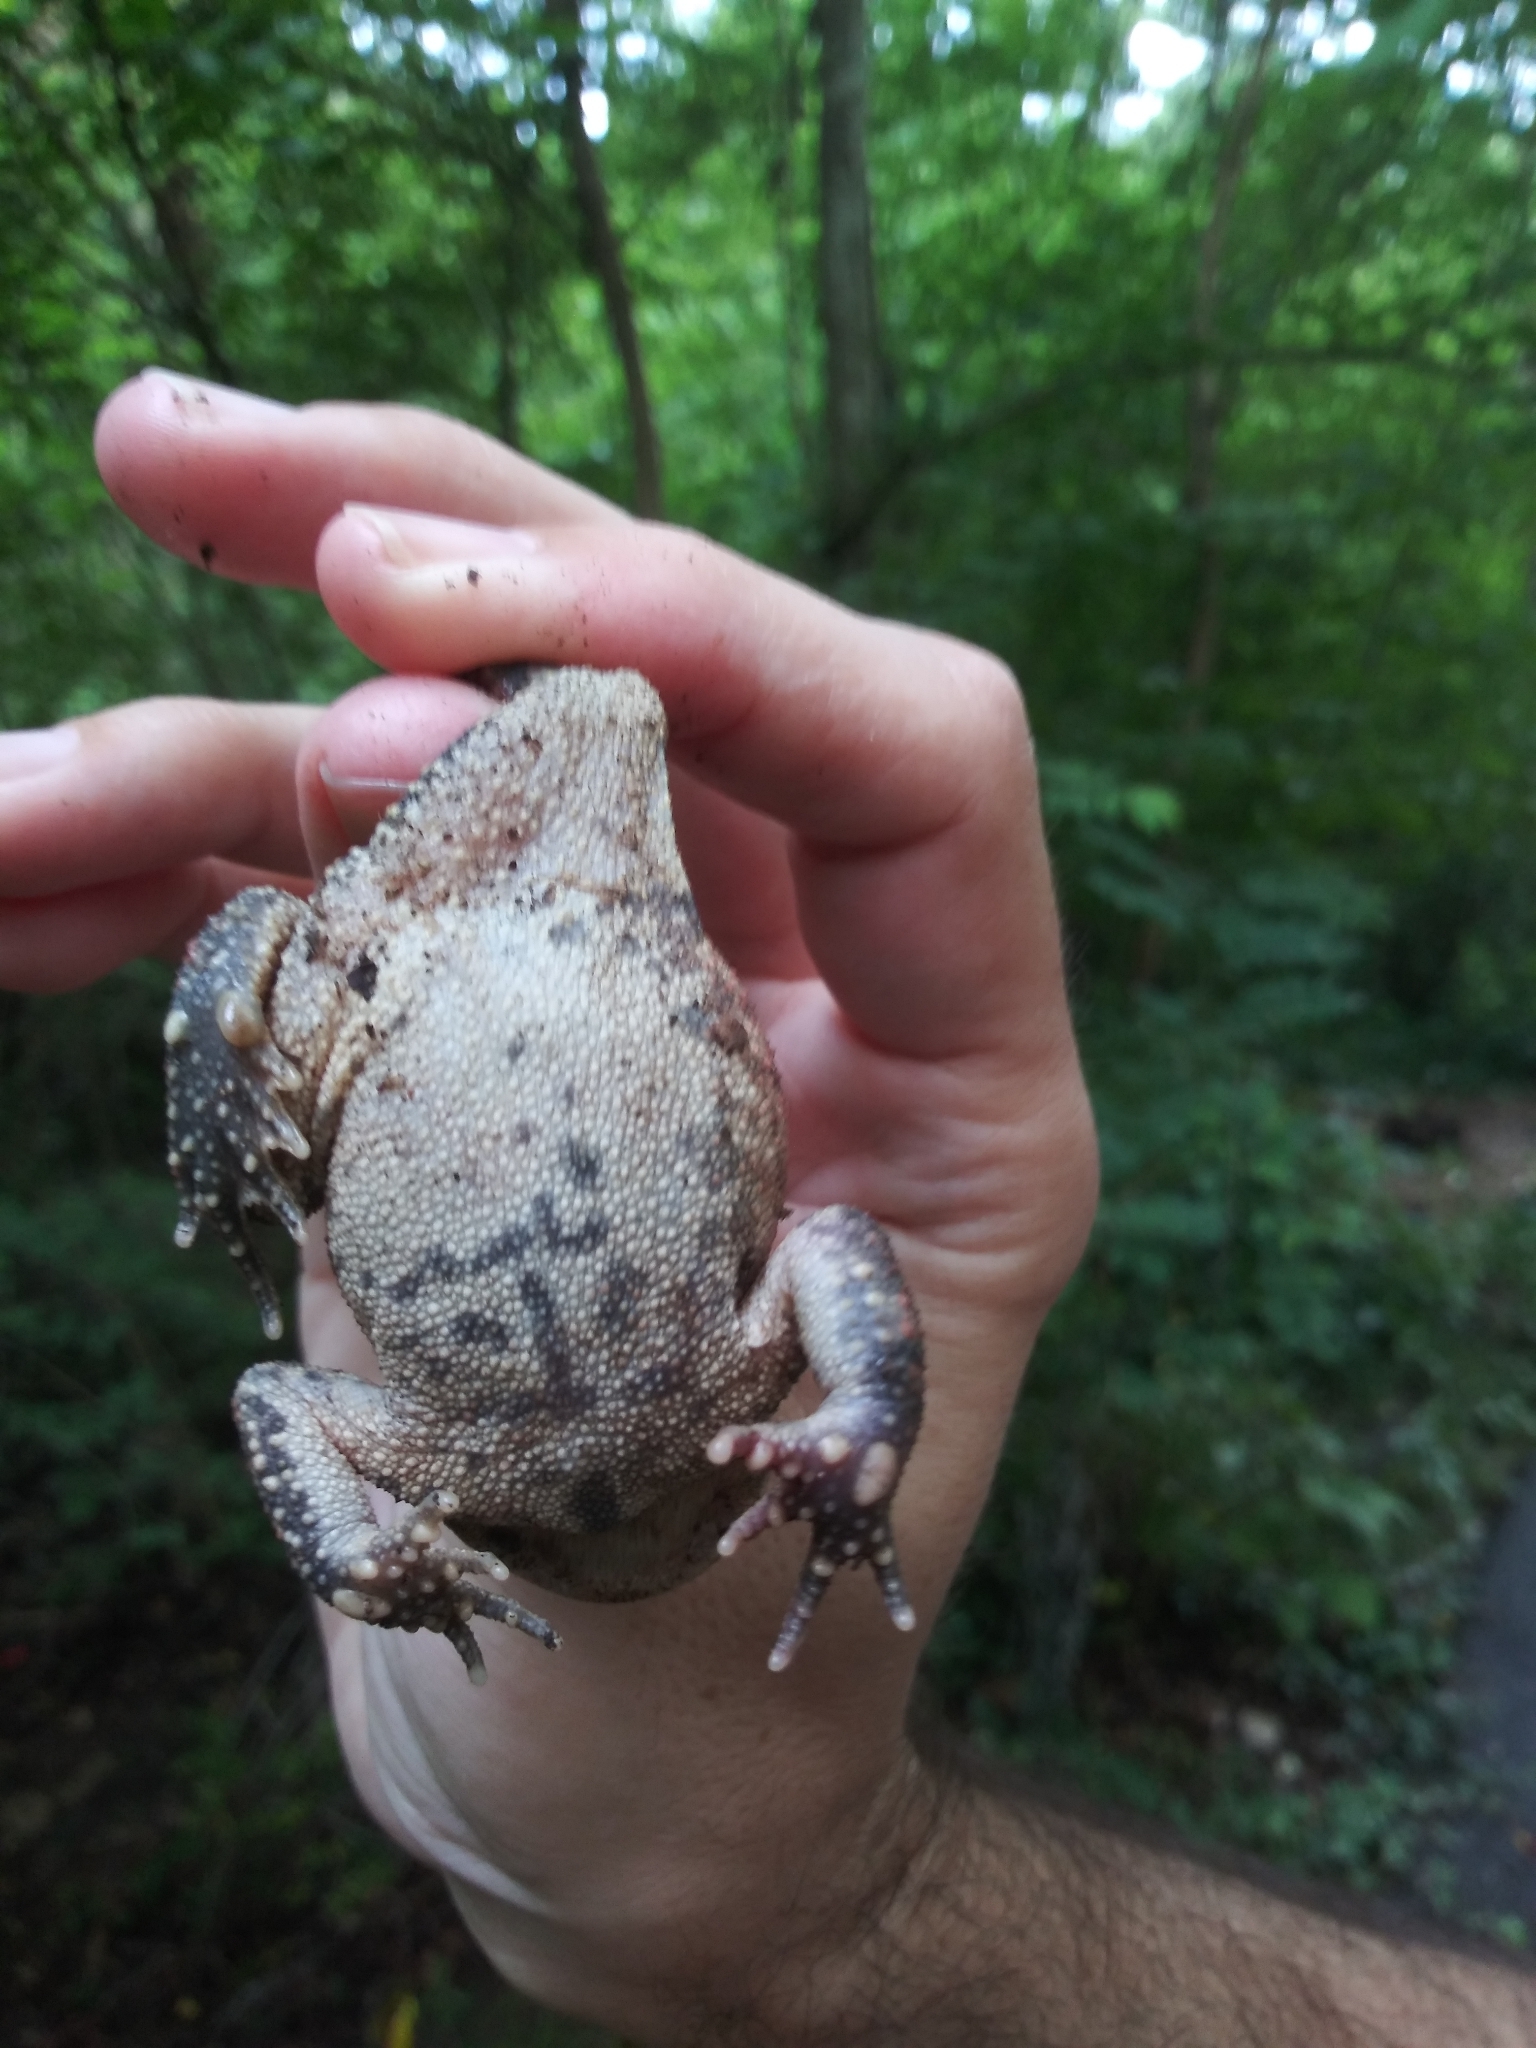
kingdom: Animalia
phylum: Chordata
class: Amphibia
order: Anura
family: Bufonidae
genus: Anaxyrus
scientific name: Anaxyrus americanus
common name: American toad
